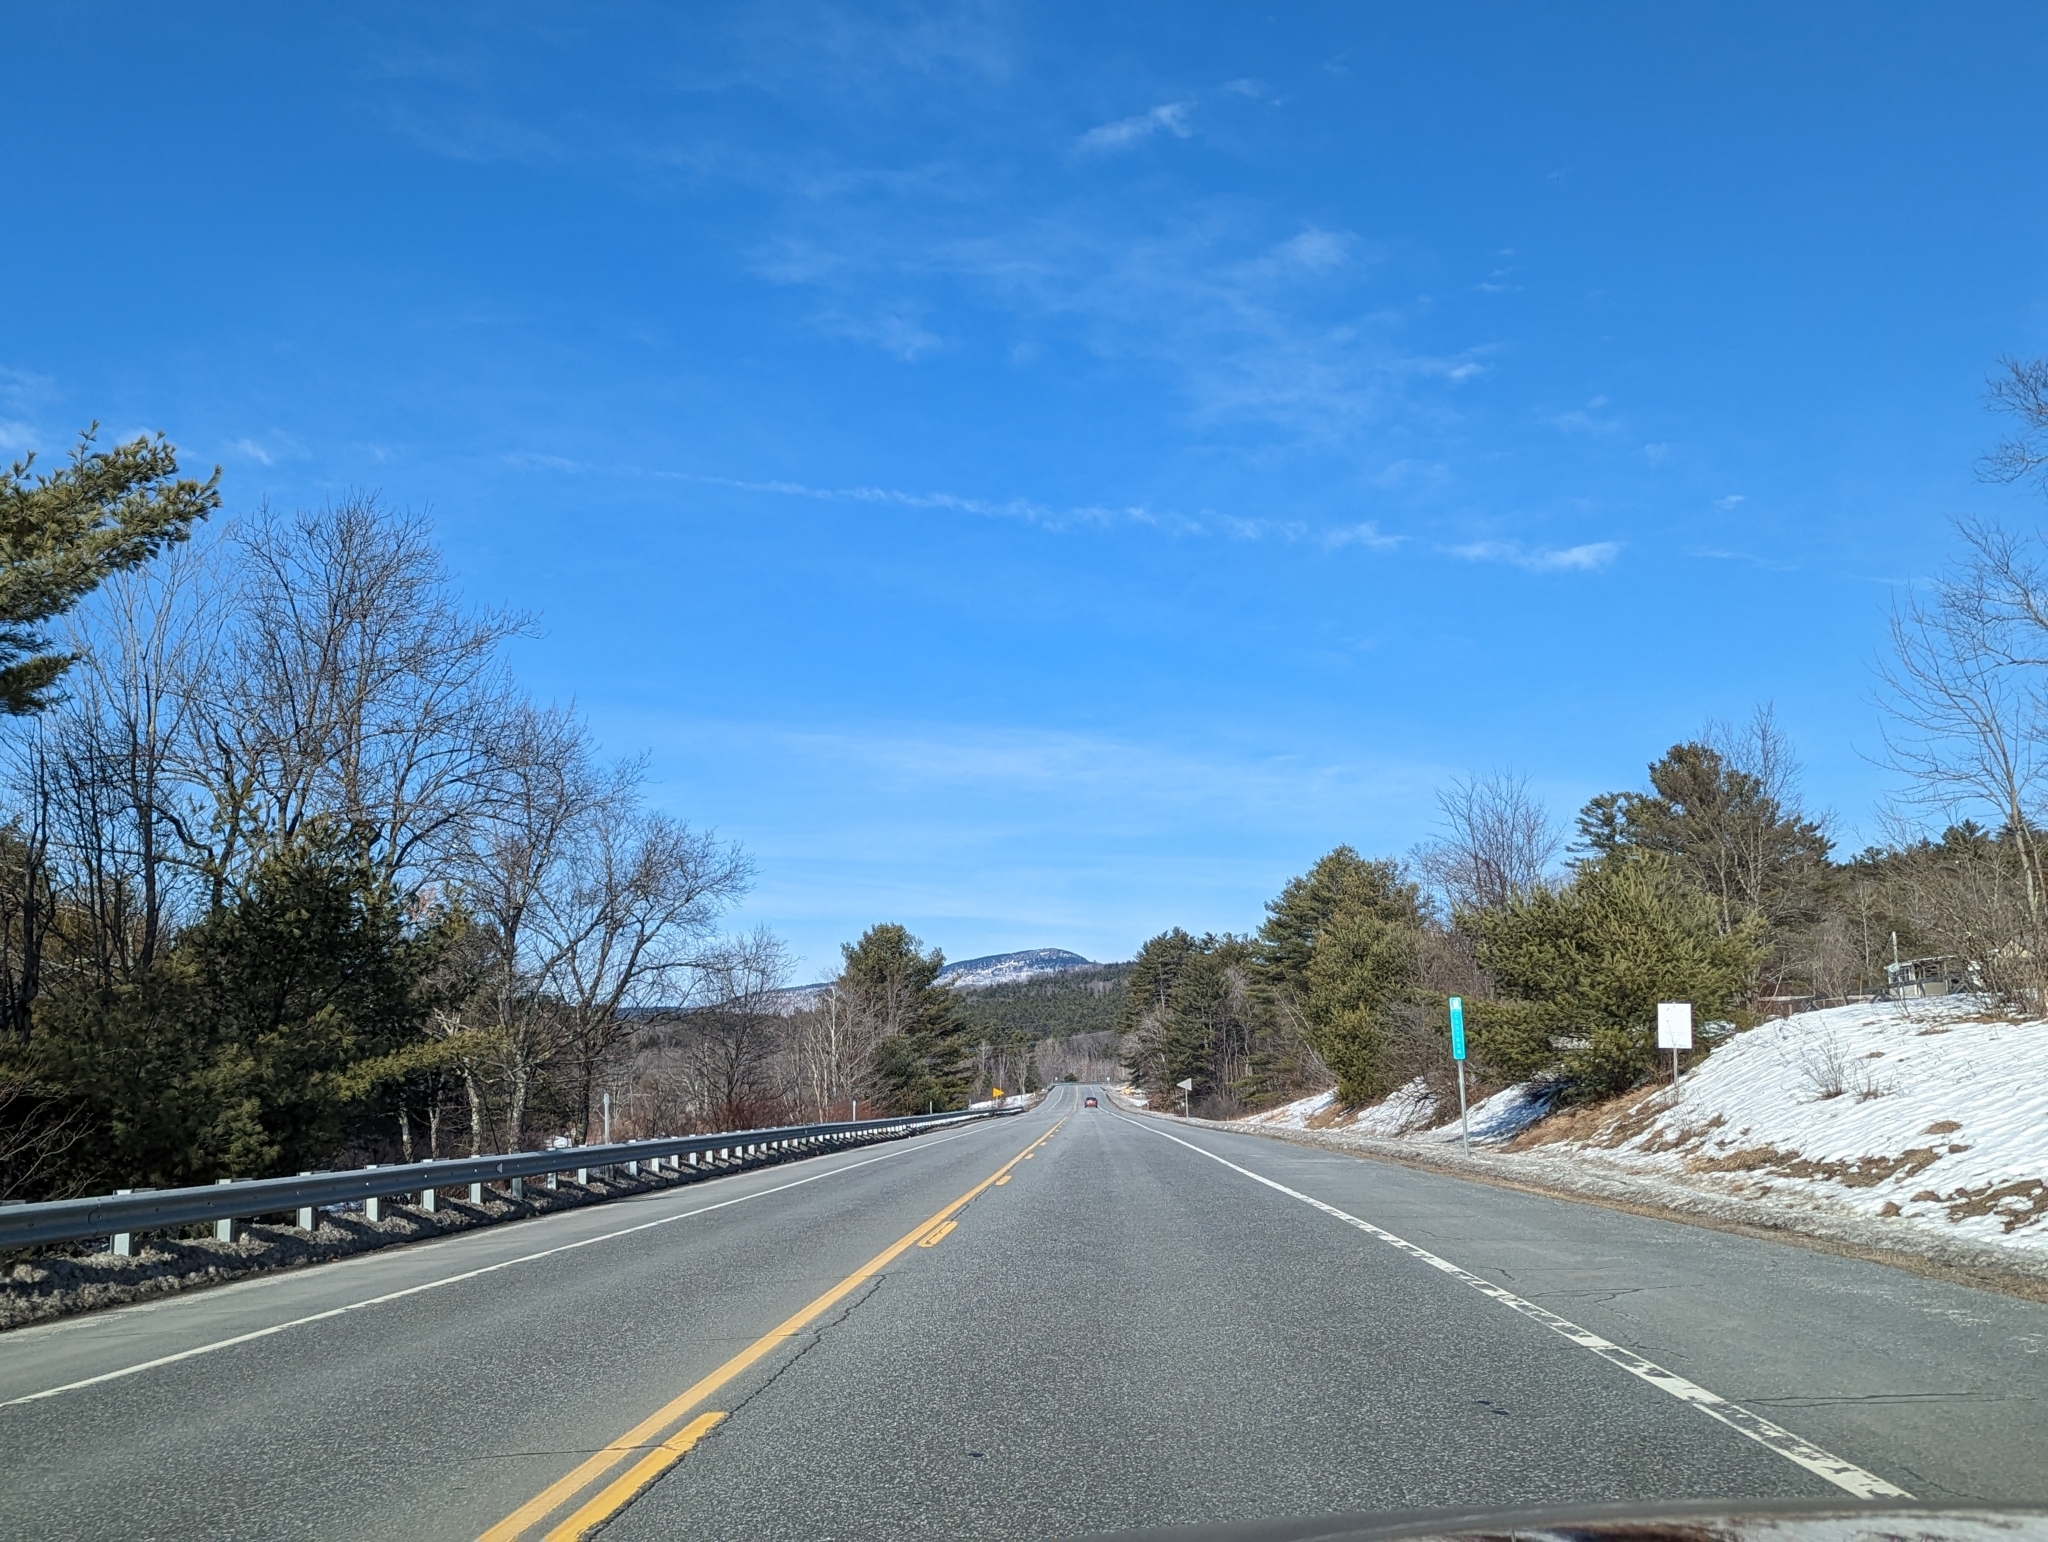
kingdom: Plantae
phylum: Tracheophyta
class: Pinopsida
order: Pinales
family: Pinaceae
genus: Pinus
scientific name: Pinus strobus
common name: Weymouth pine
